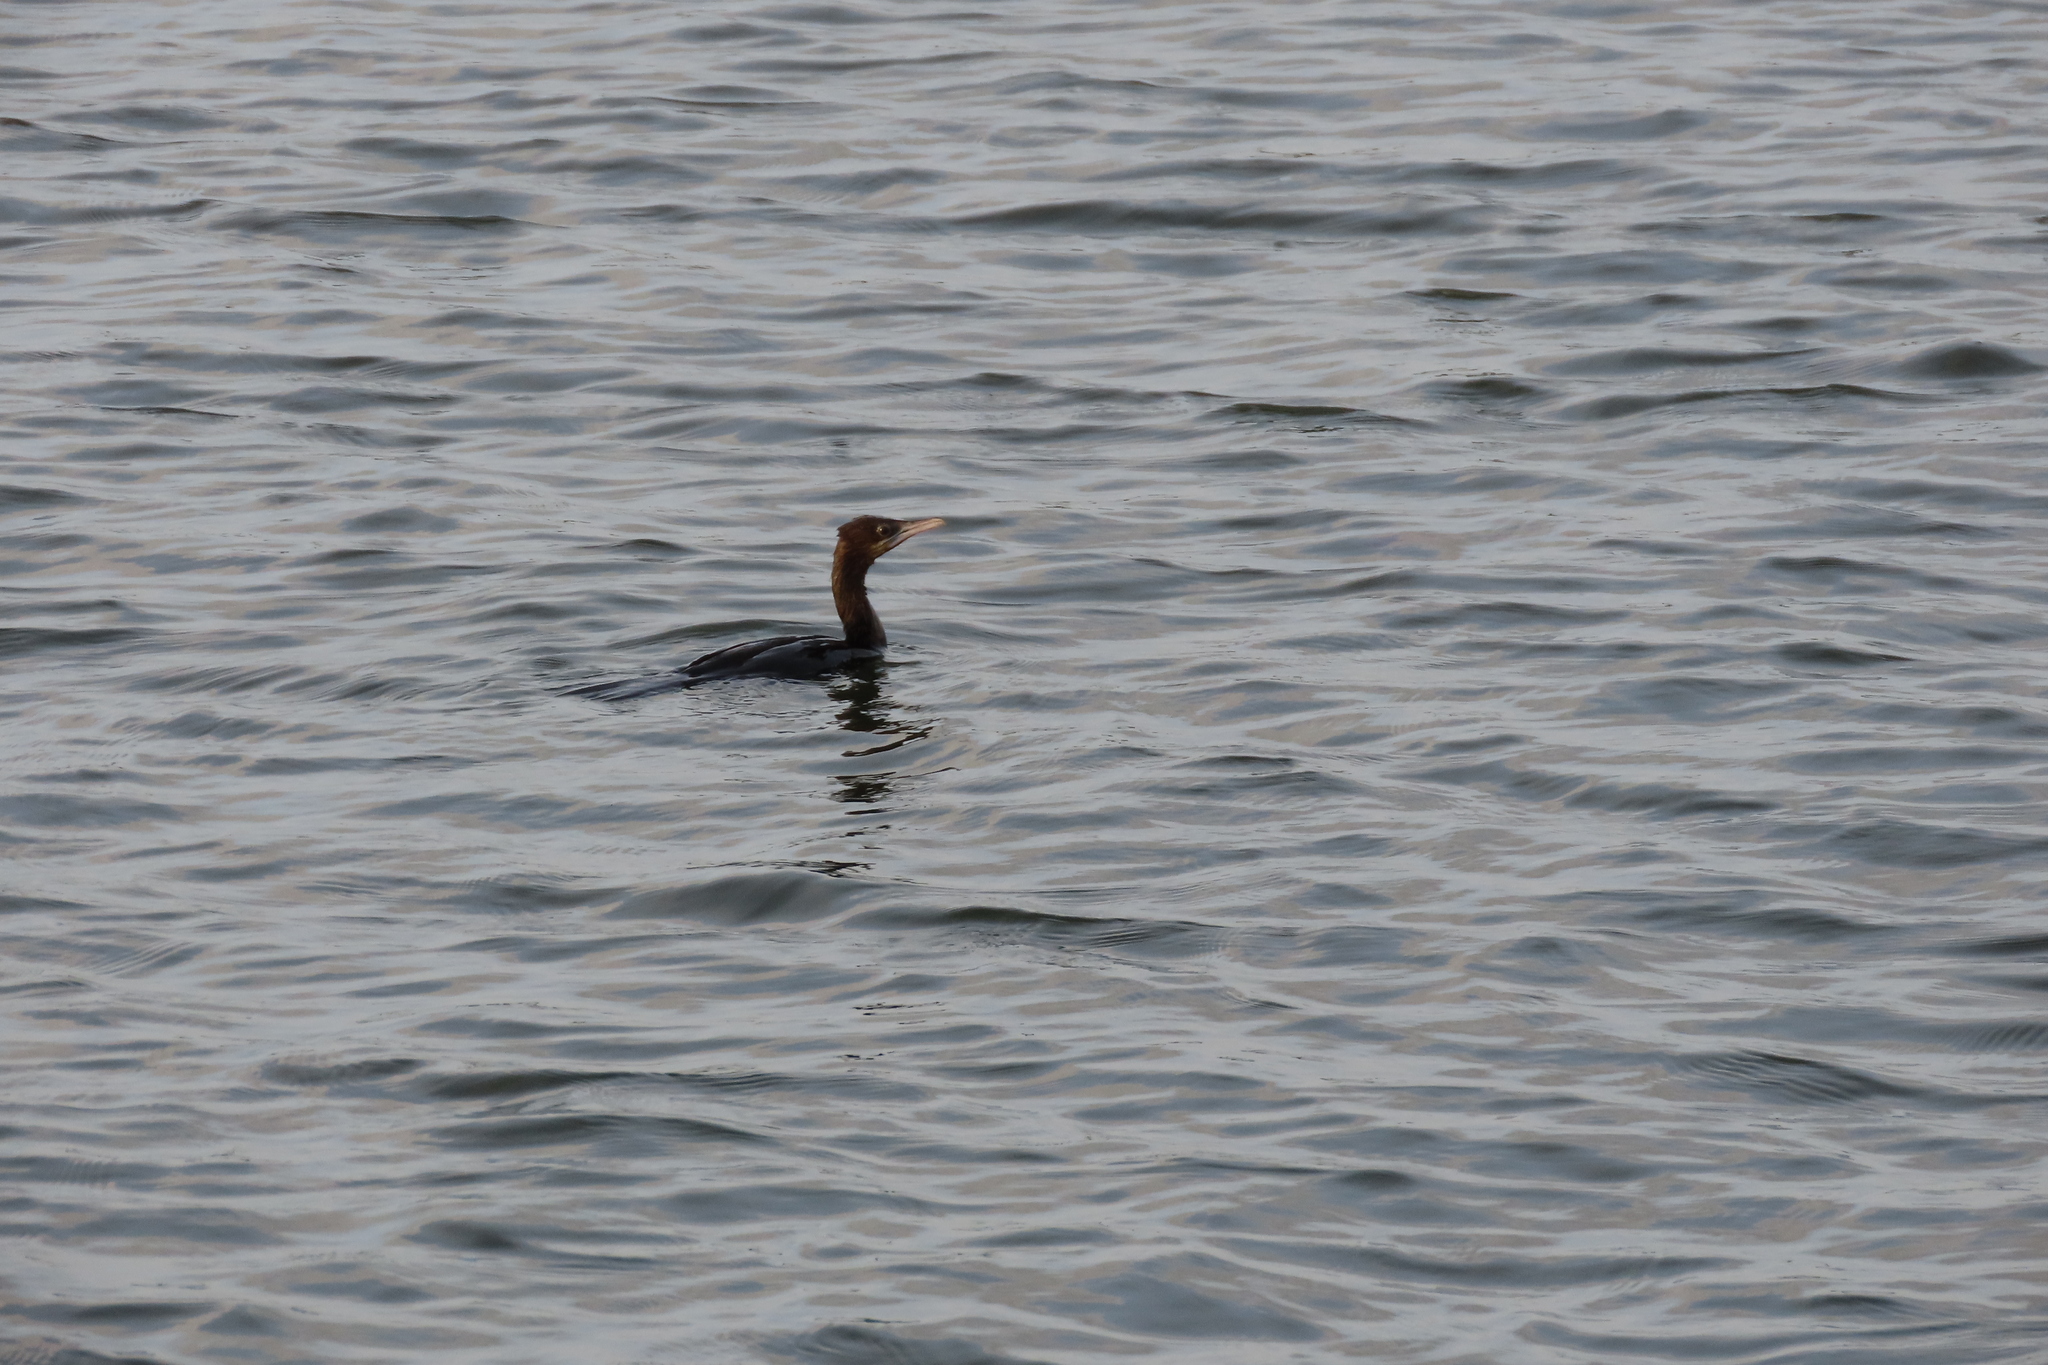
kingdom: Animalia
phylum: Chordata
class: Aves
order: Suliformes
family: Phalacrocoracidae
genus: Microcarbo
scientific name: Microcarbo niger
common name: Little cormorant
